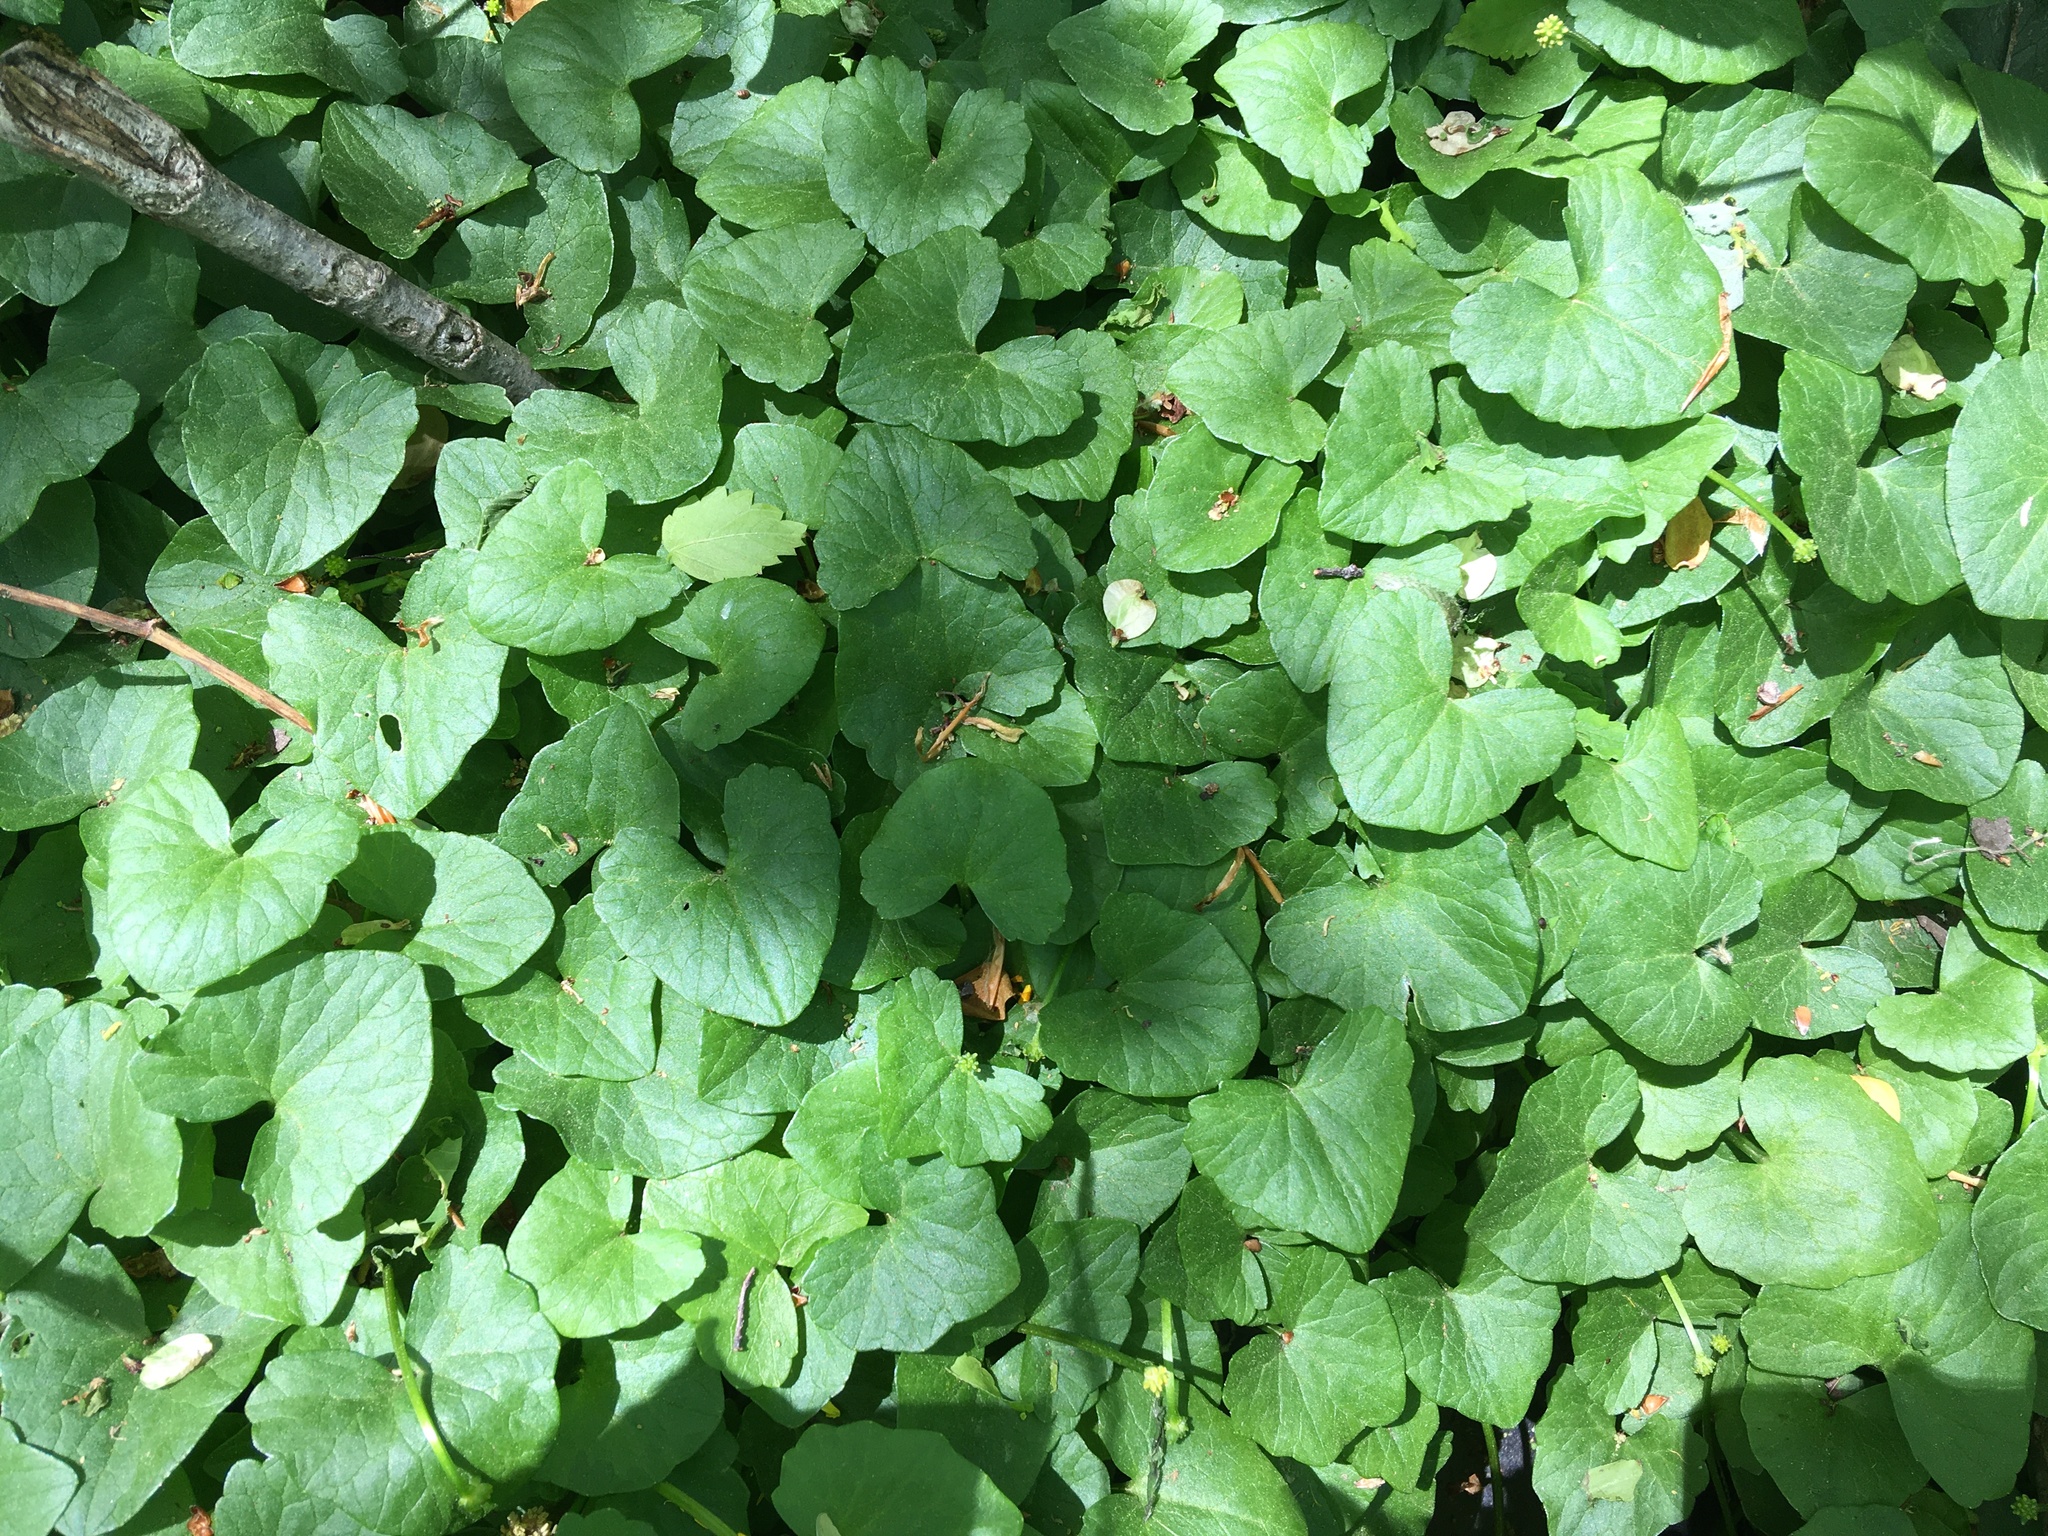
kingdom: Plantae
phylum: Tracheophyta
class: Magnoliopsida
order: Ranunculales
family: Ranunculaceae
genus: Ficaria
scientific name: Ficaria verna
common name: Lesser celandine
